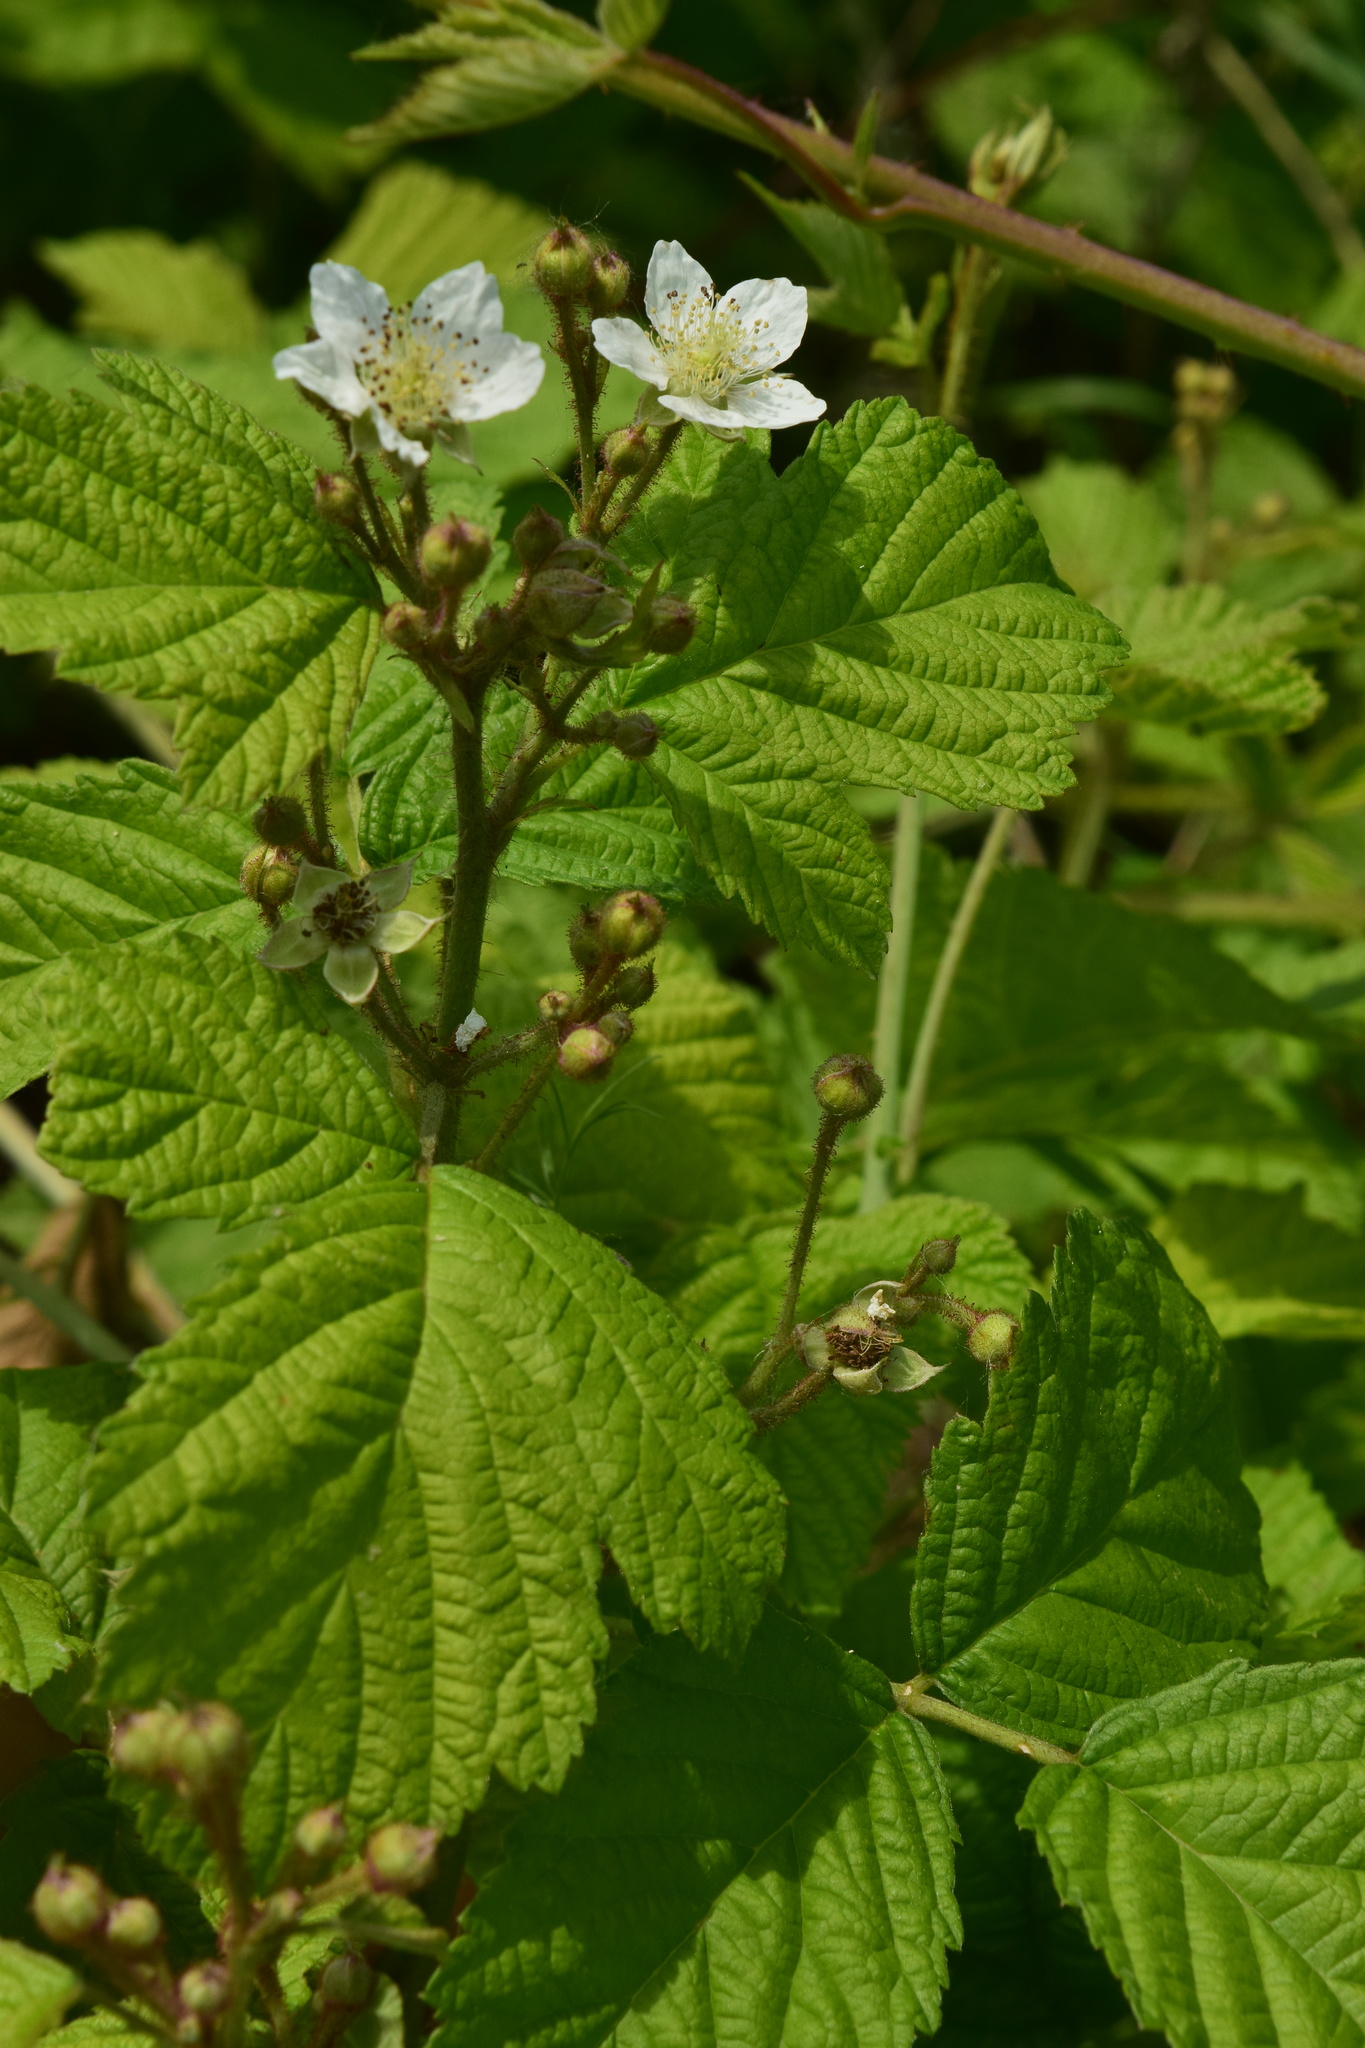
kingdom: Plantae
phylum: Tracheophyta
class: Magnoliopsida
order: Rosales
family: Rosaceae
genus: Rubus
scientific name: Rubus caesius
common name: Dewberry
